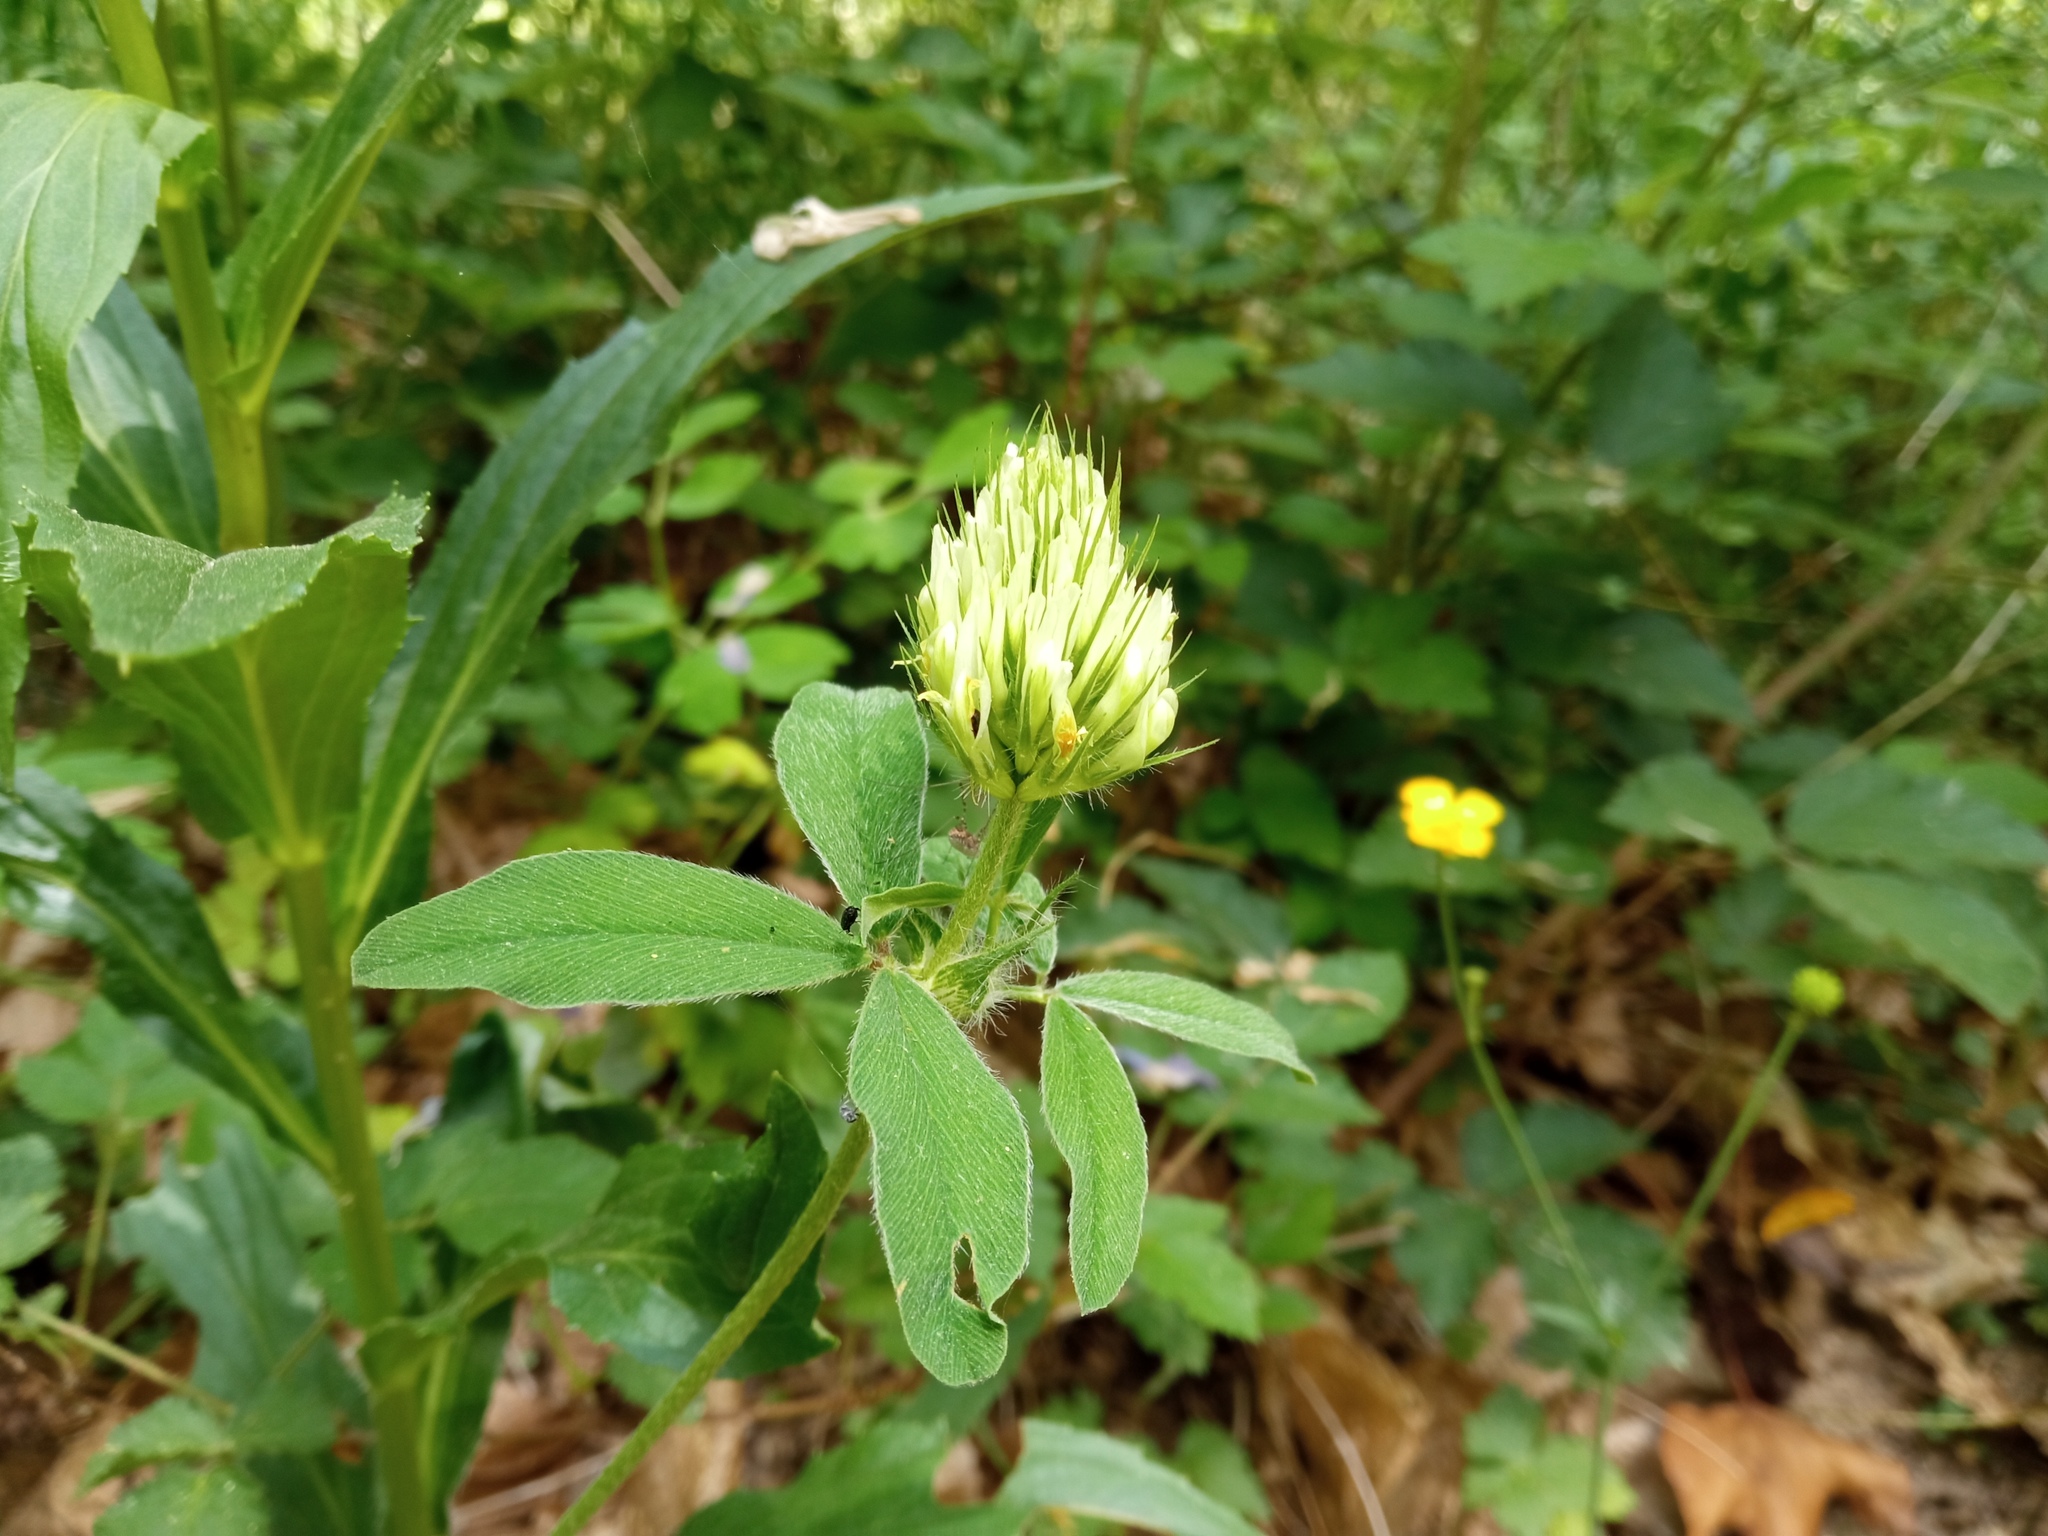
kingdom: Plantae
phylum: Tracheophyta
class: Magnoliopsida
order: Fabales
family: Fabaceae
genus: Trifolium
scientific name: Trifolium ochroleucon
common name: Sulphur clover
